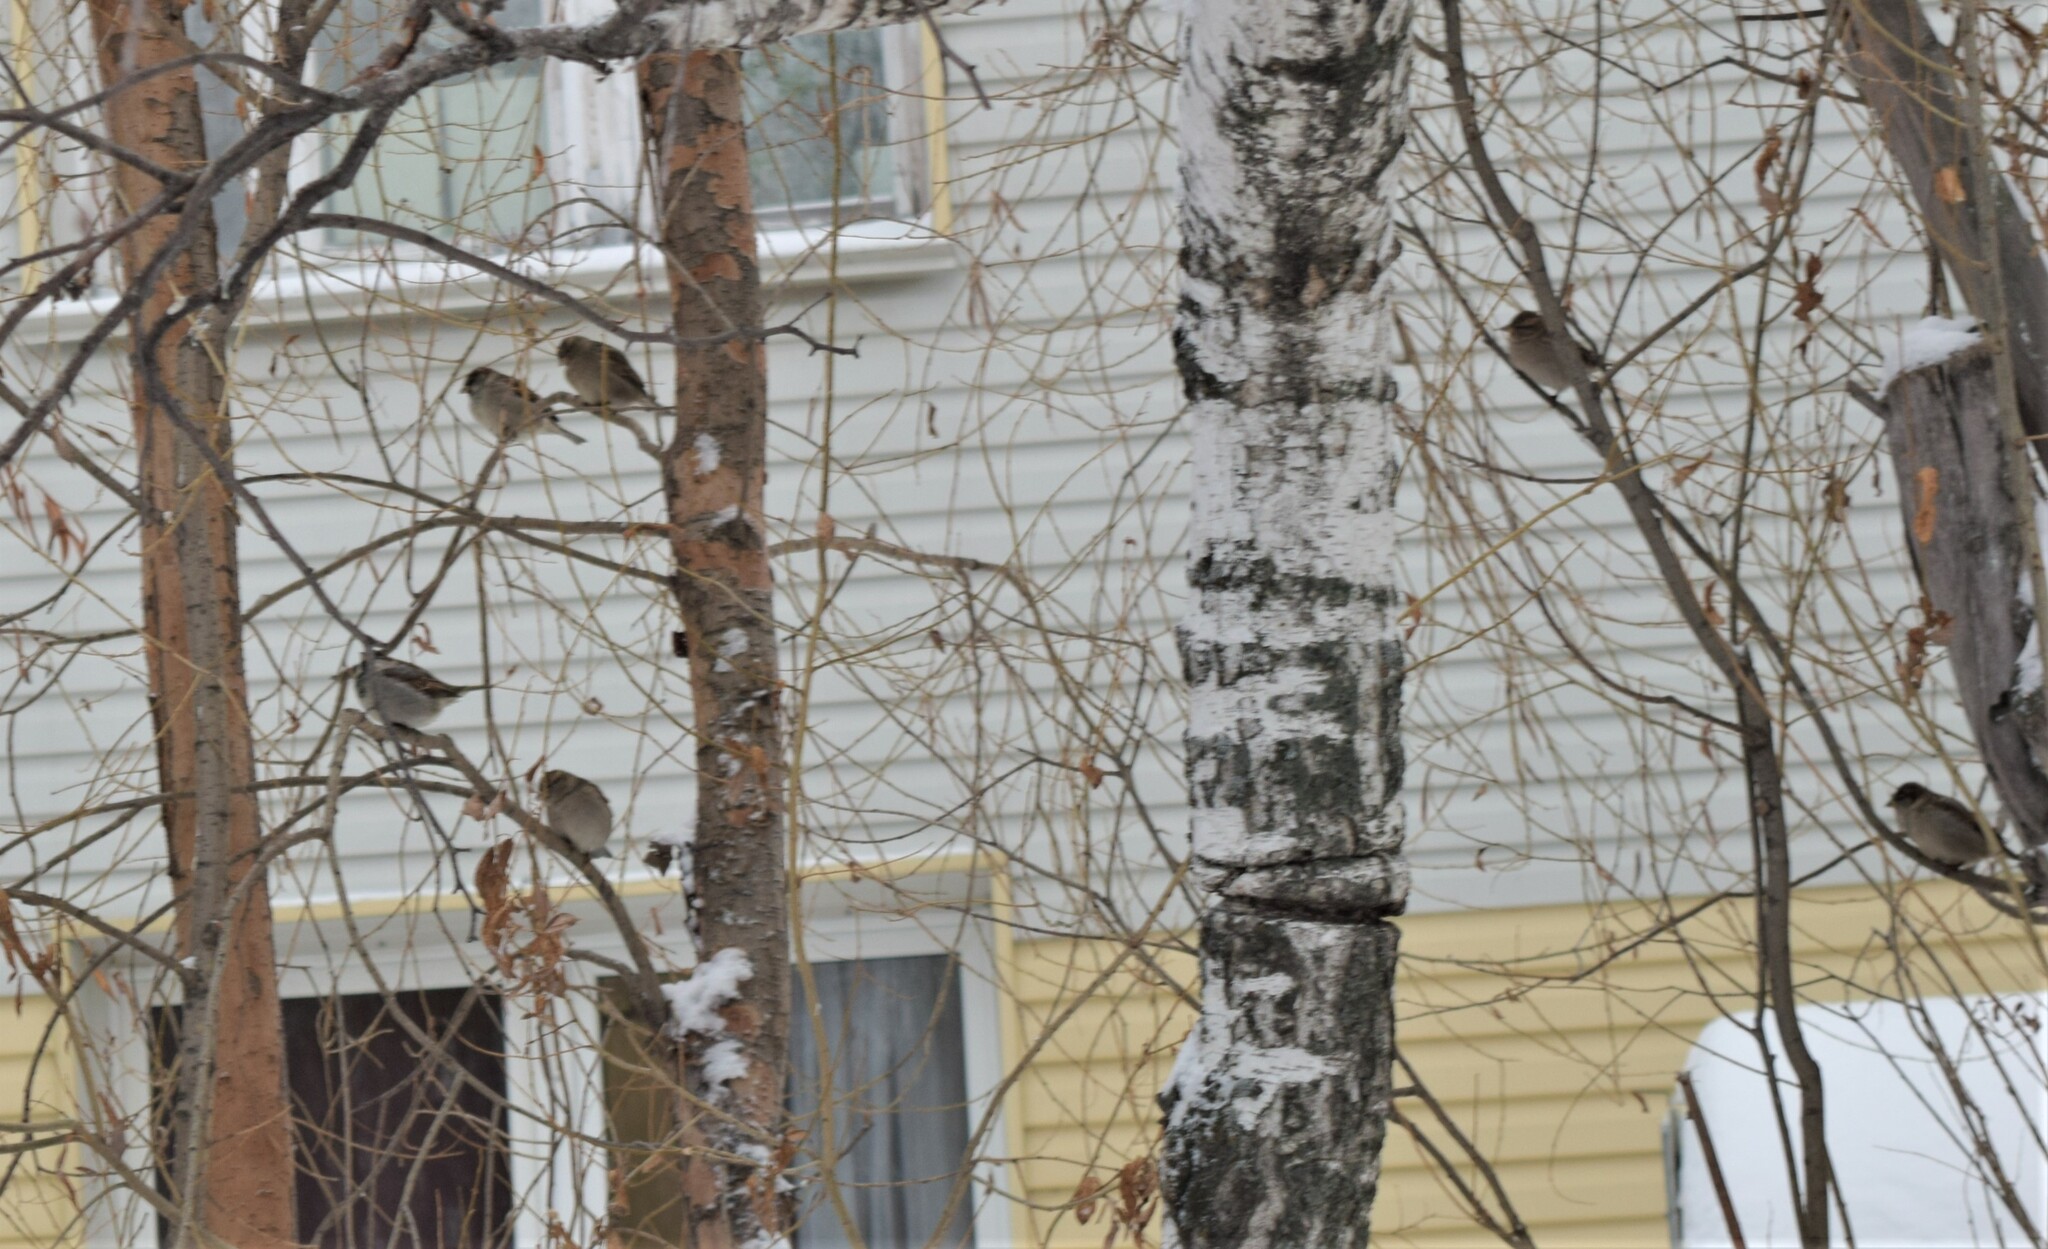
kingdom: Animalia
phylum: Chordata
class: Aves
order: Passeriformes
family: Passeridae
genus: Passer
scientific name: Passer domesticus
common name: House sparrow
